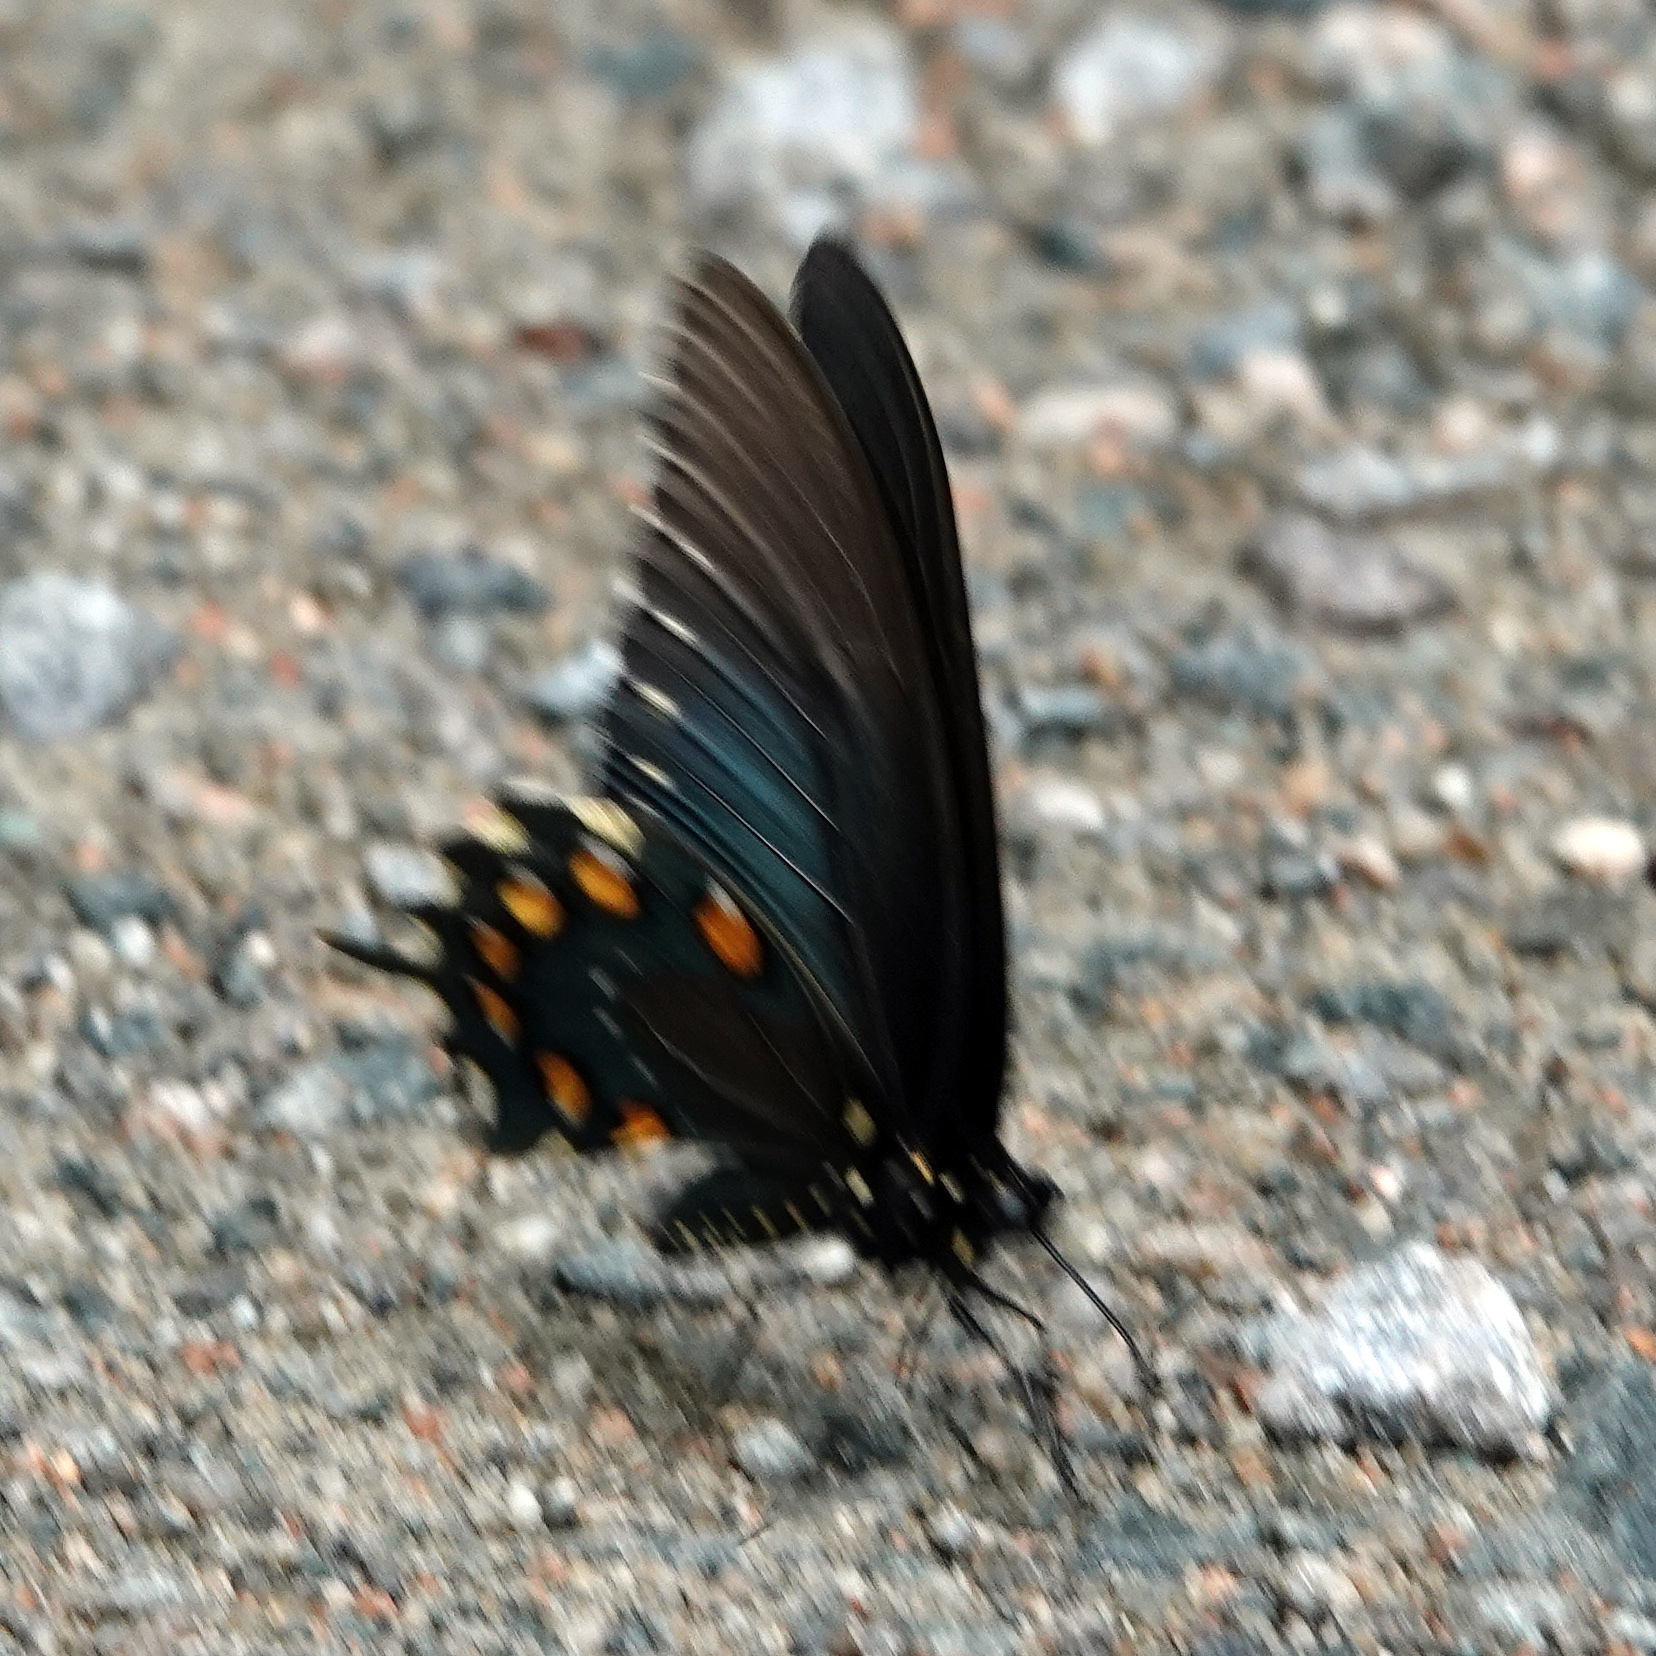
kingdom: Animalia
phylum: Arthropoda
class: Insecta
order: Lepidoptera
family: Papilionidae
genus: Battus
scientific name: Battus philenor
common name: Pipevine swallowtail
